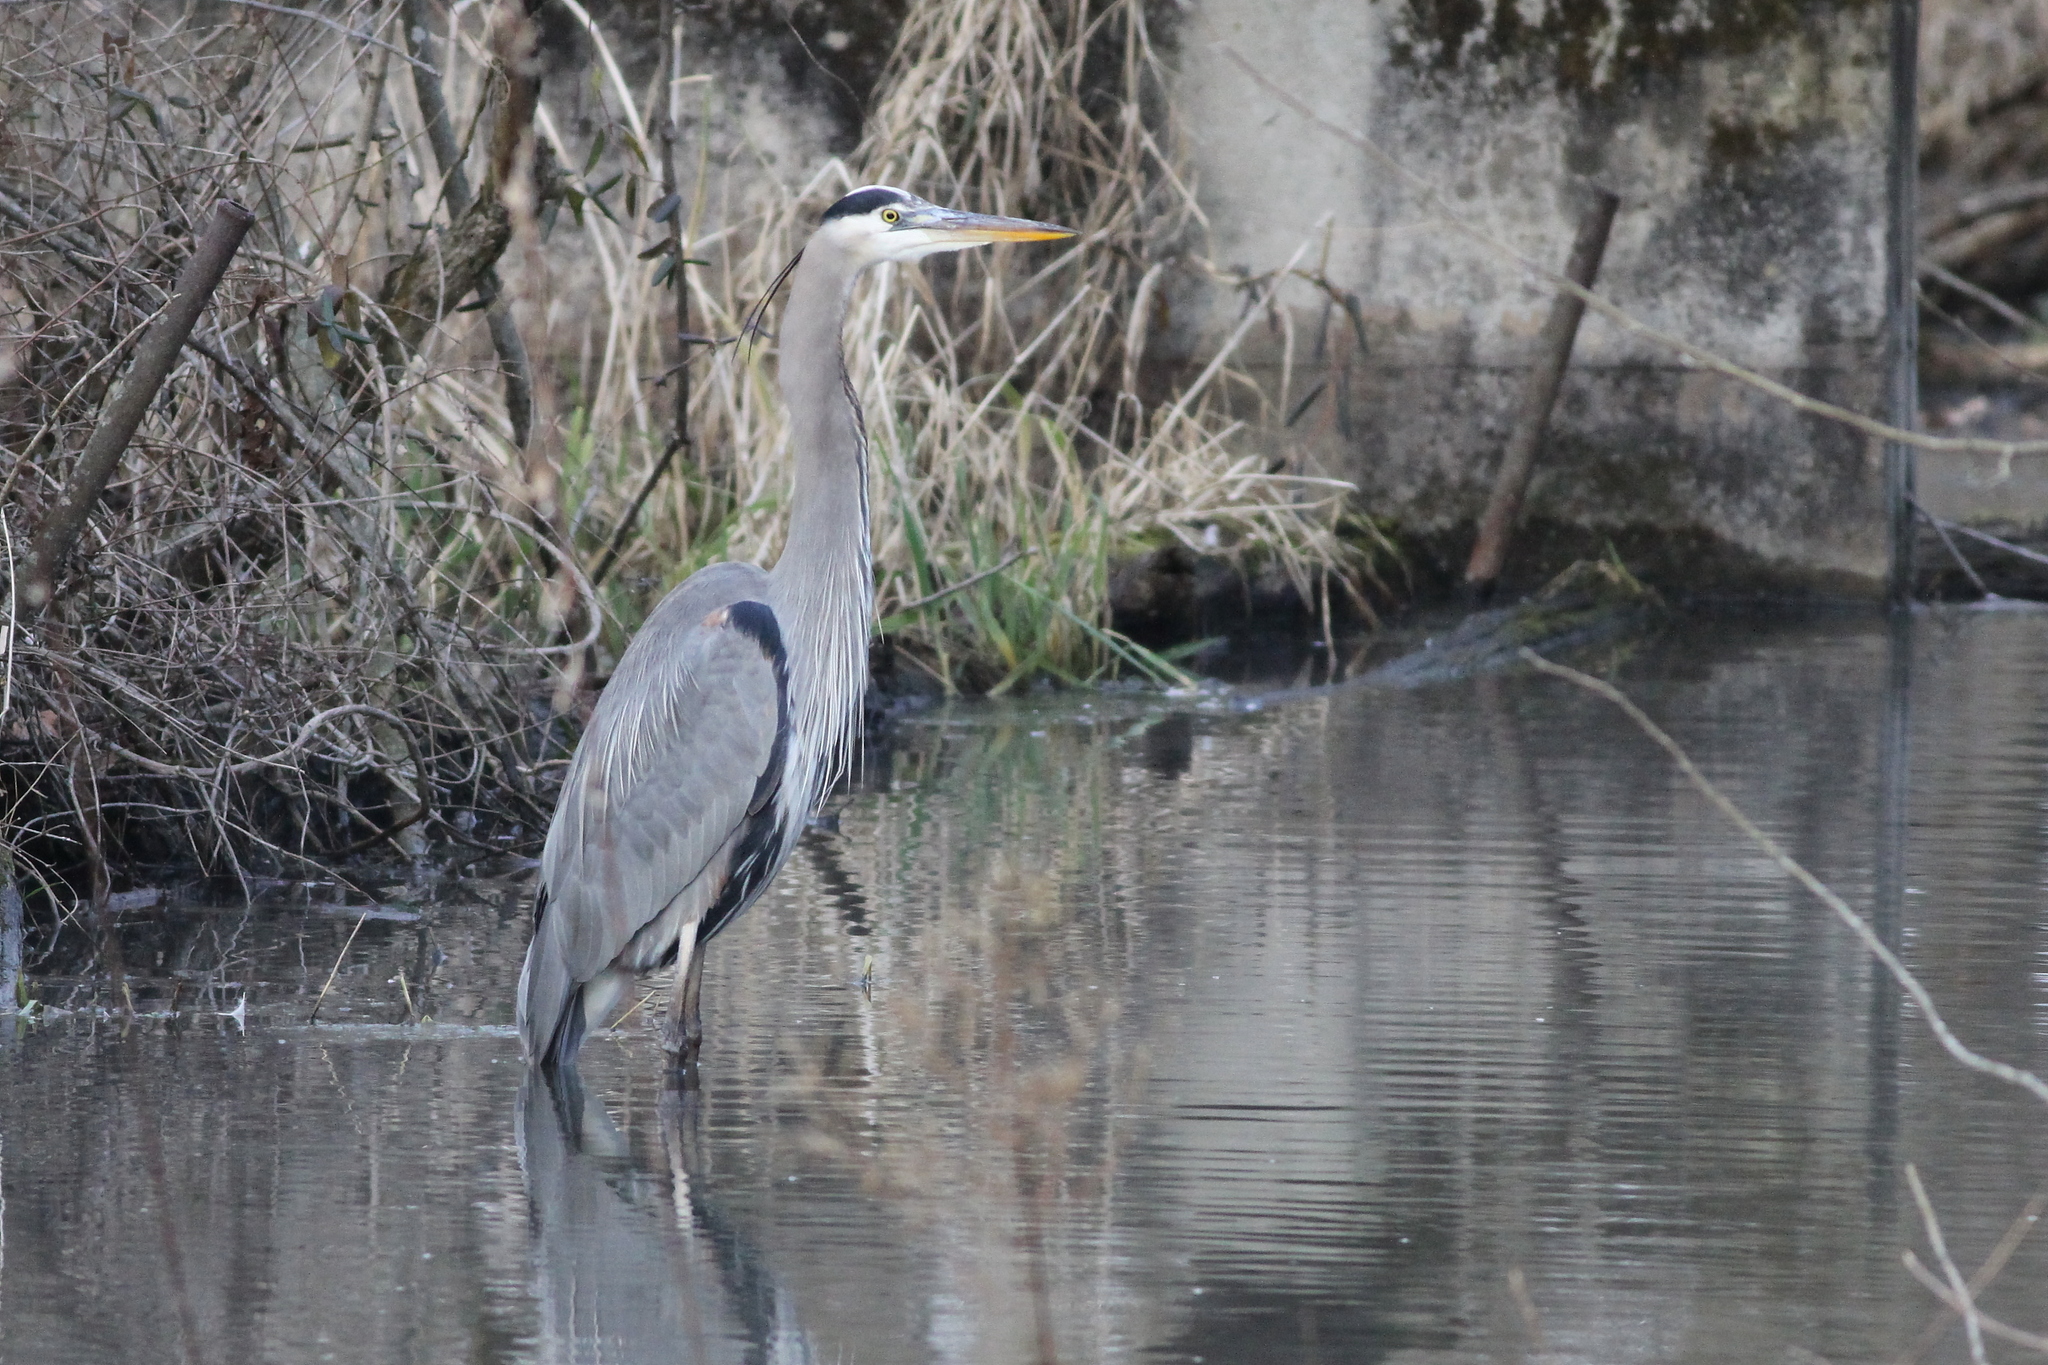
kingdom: Animalia
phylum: Chordata
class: Aves
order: Pelecaniformes
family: Ardeidae
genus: Ardea
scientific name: Ardea herodias
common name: Great blue heron
